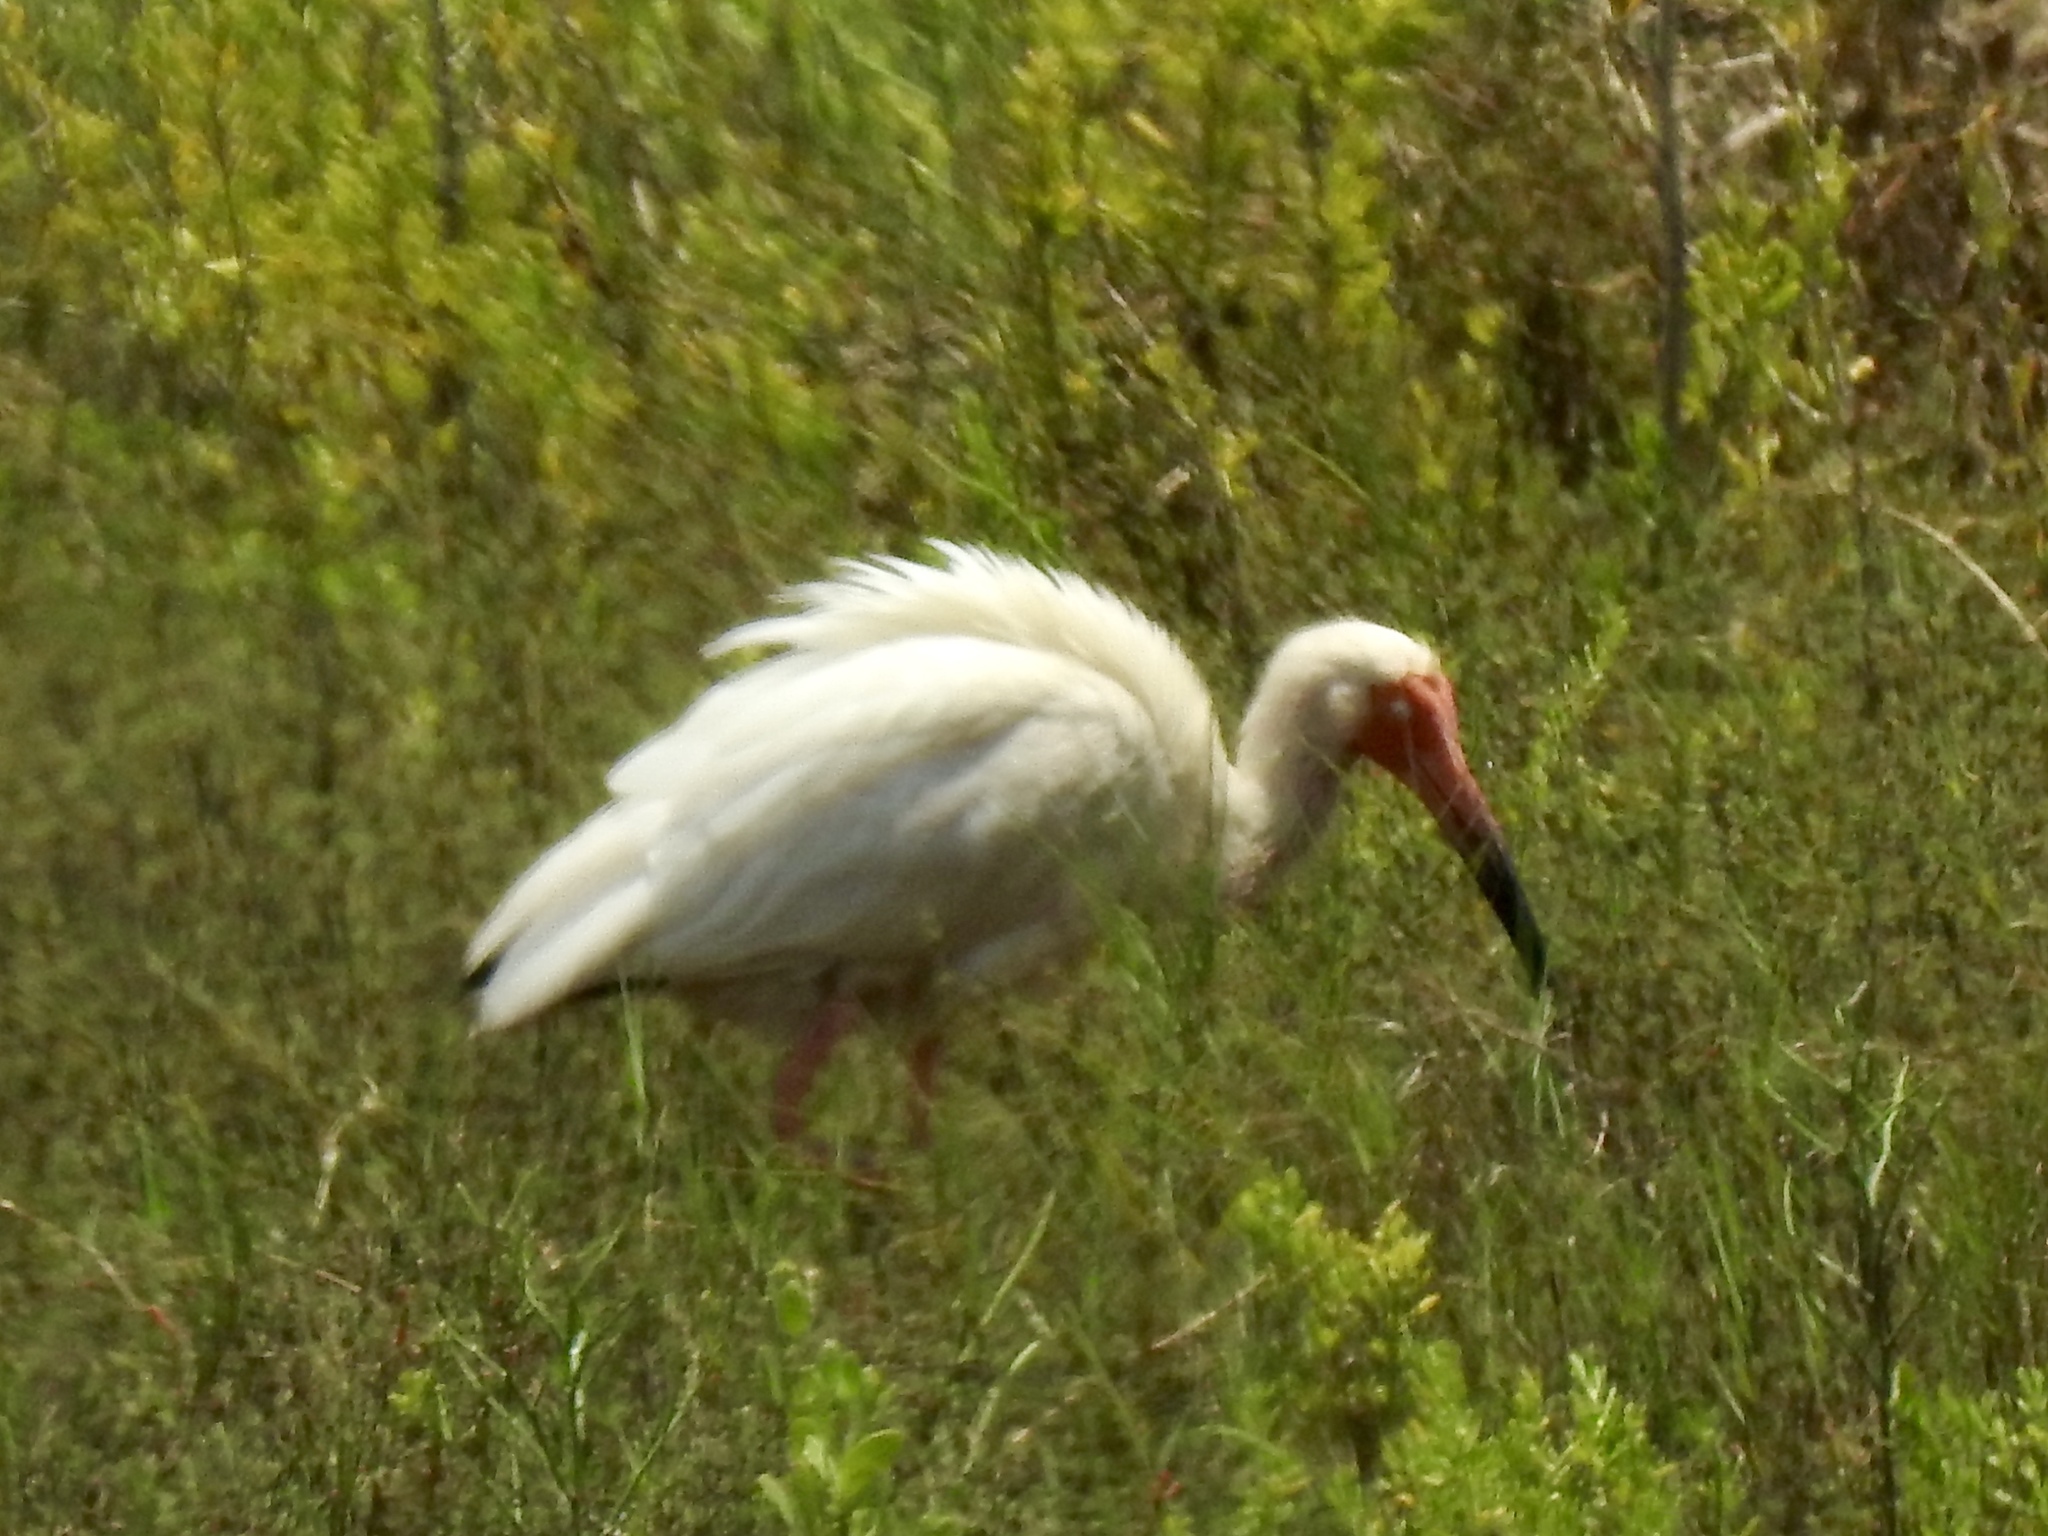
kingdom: Animalia
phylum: Chordata
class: Aves
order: Pelecaniformes
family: Threskiornithidae
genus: Eudocimus
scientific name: Eudocimus albus
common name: White ibis
